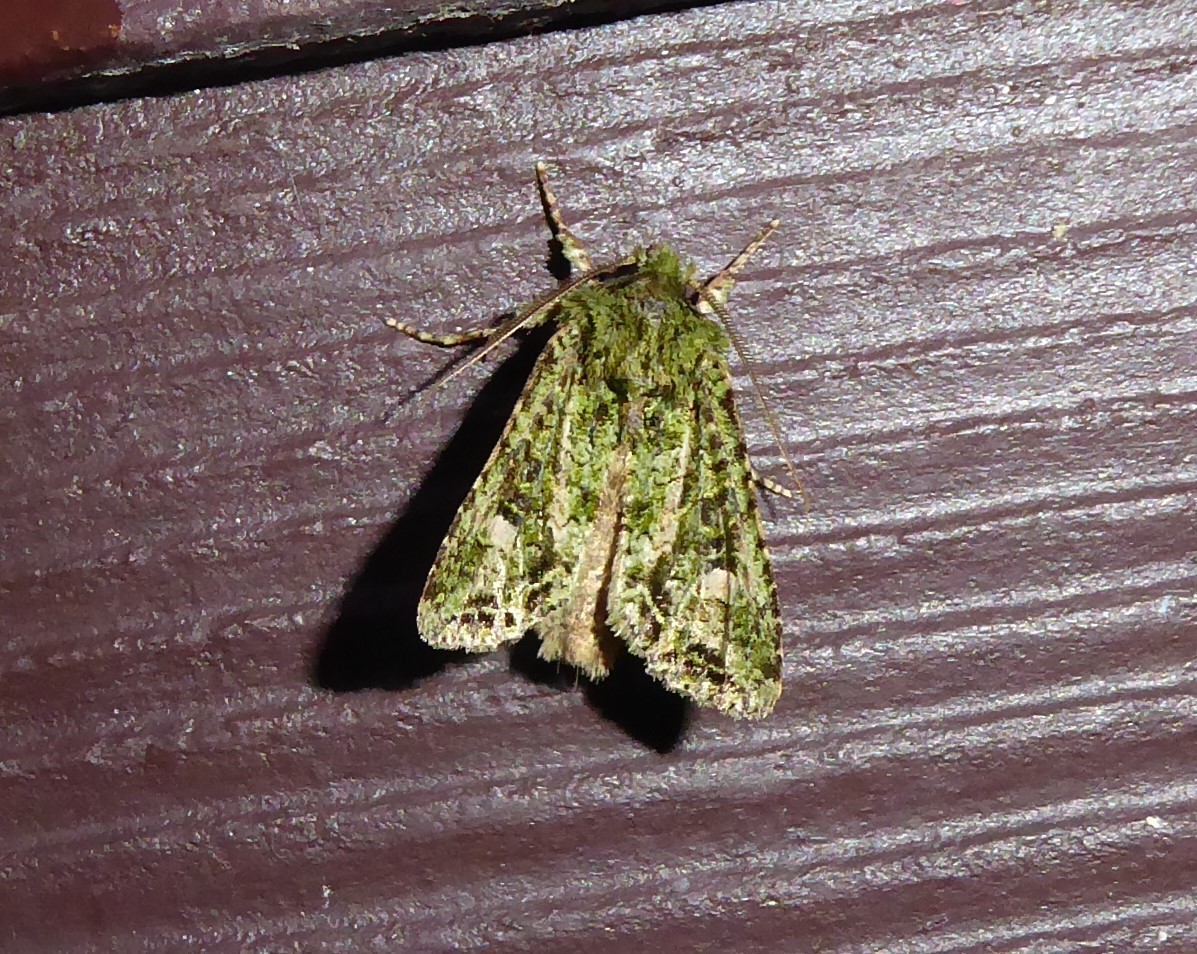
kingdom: Animalia
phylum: Arthropoda
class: Insecta
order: Lepidoptera
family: Noctuidae
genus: Ichneutica
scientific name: Ichneutica
